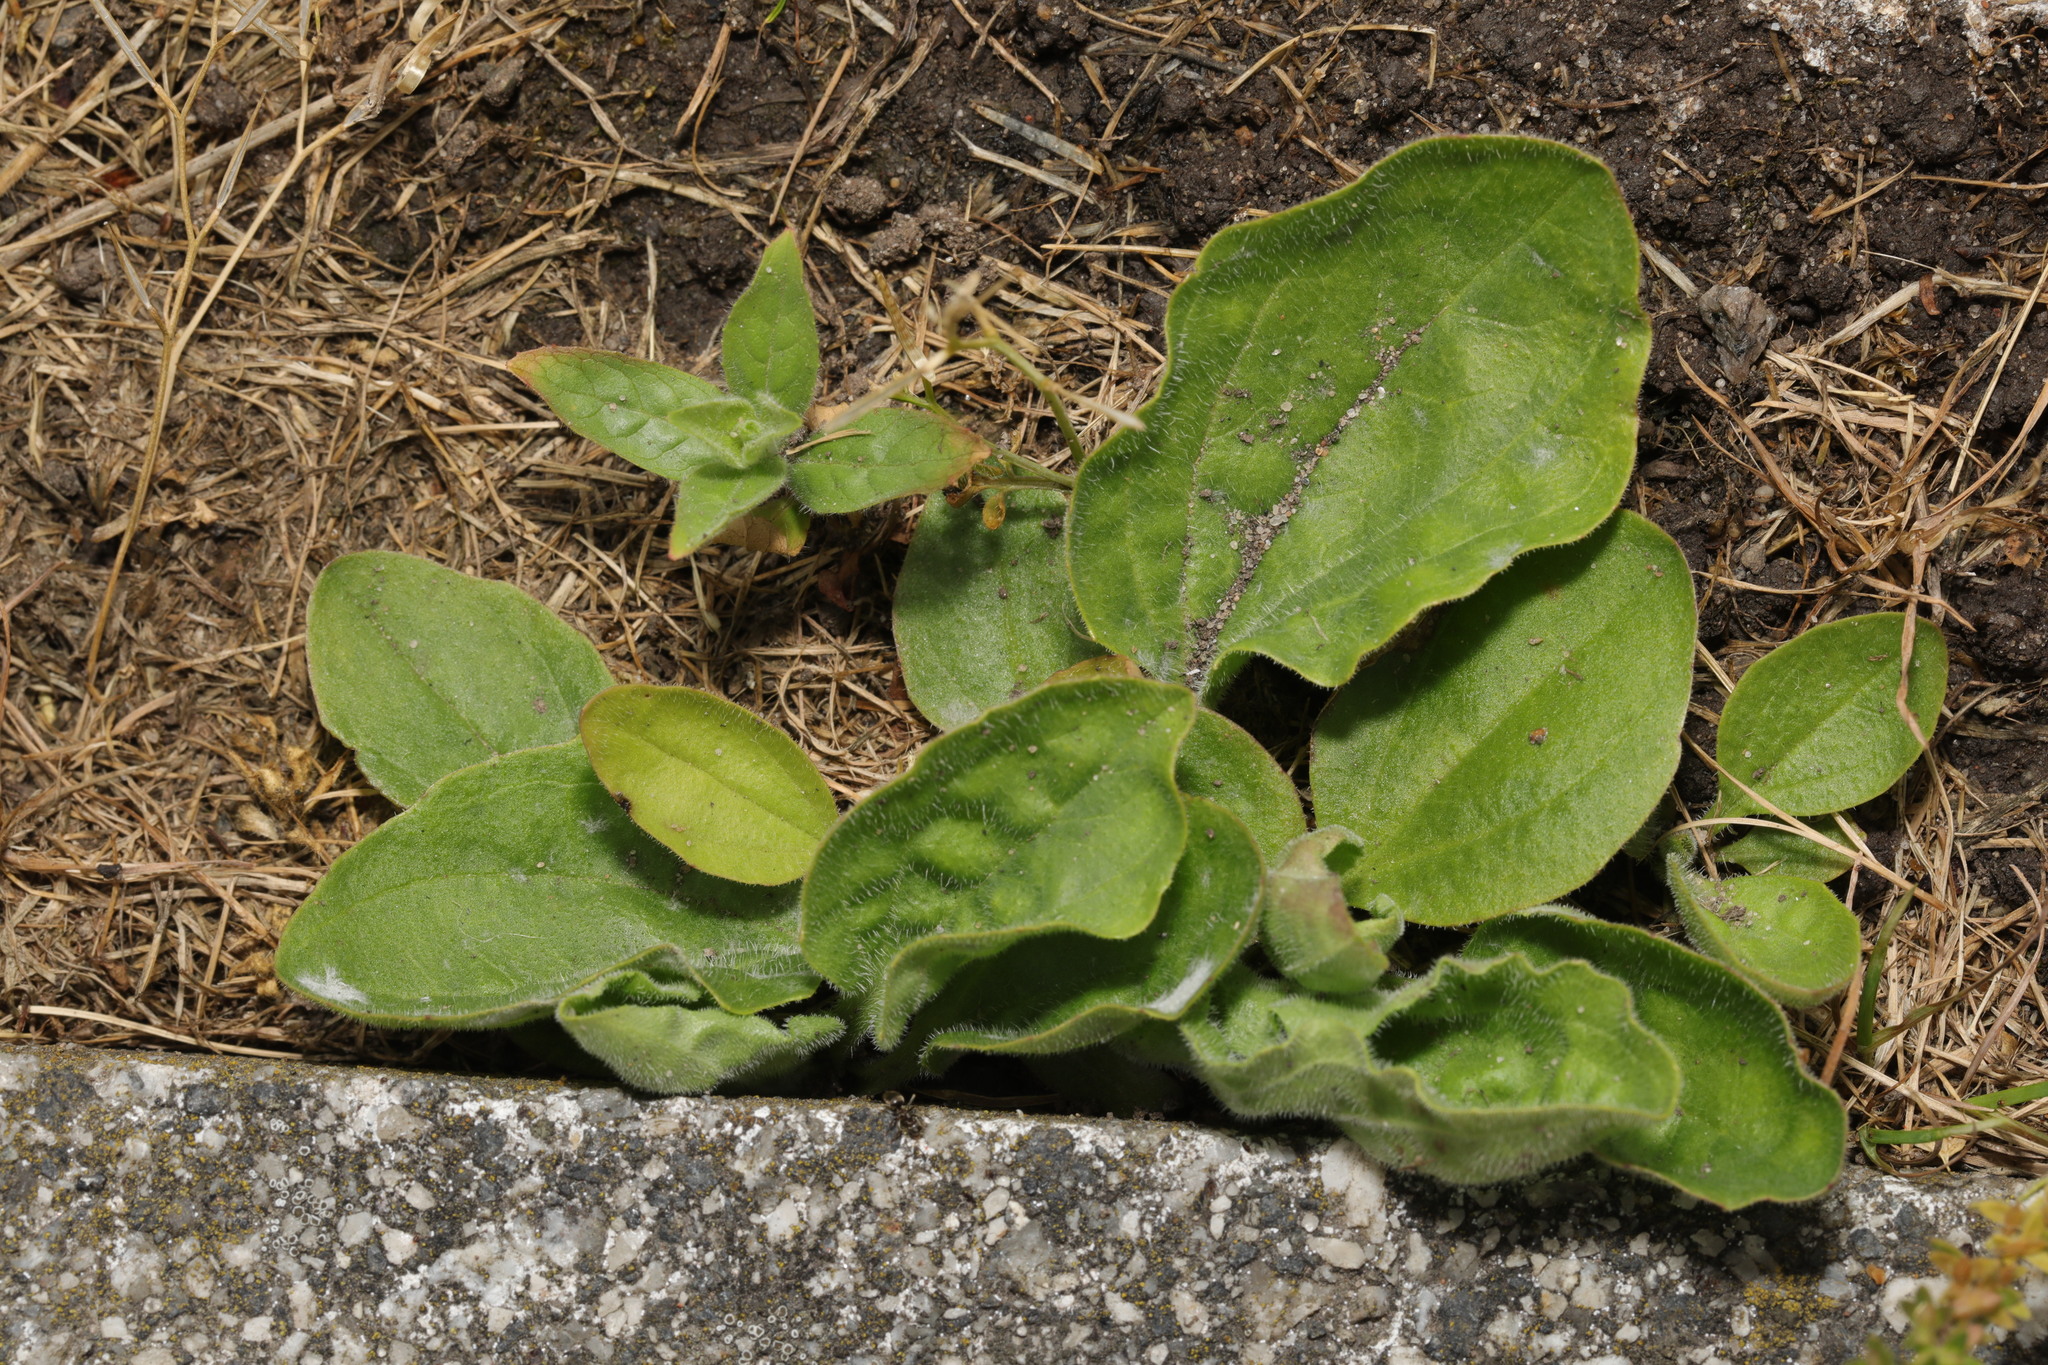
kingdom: Plantae
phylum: Tracheophyta
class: Magnoliopsida
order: Lamiales
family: Plantaginaceae
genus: Plantago
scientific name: Plantago major
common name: Common plantain
